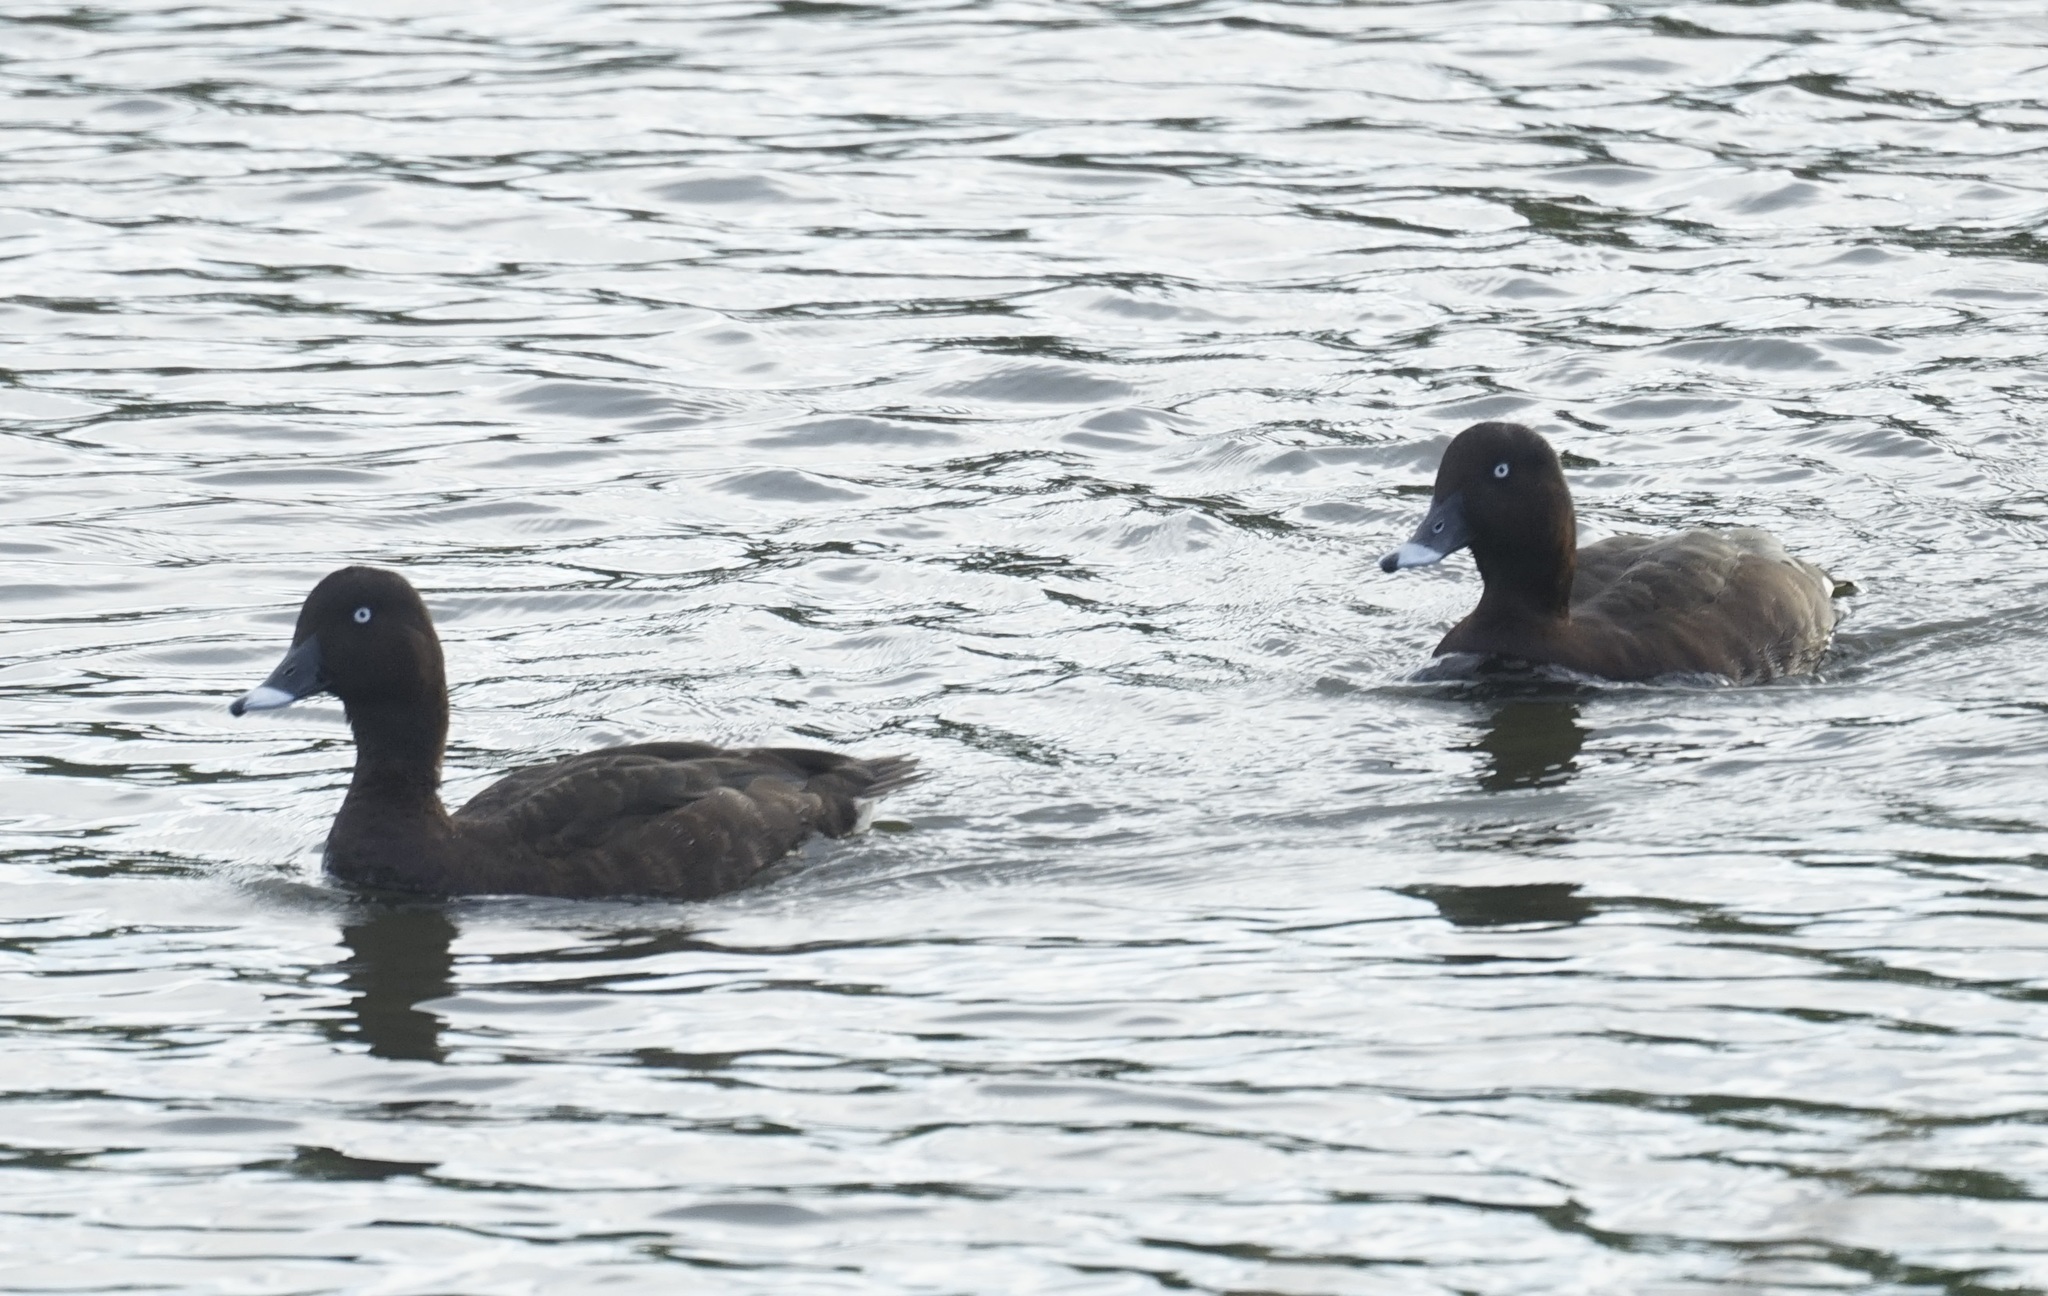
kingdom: Animalia
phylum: Chordata
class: Aves
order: Anseriformes
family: Anatidae
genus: Aythya
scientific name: Aythya australis
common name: Hardhead
